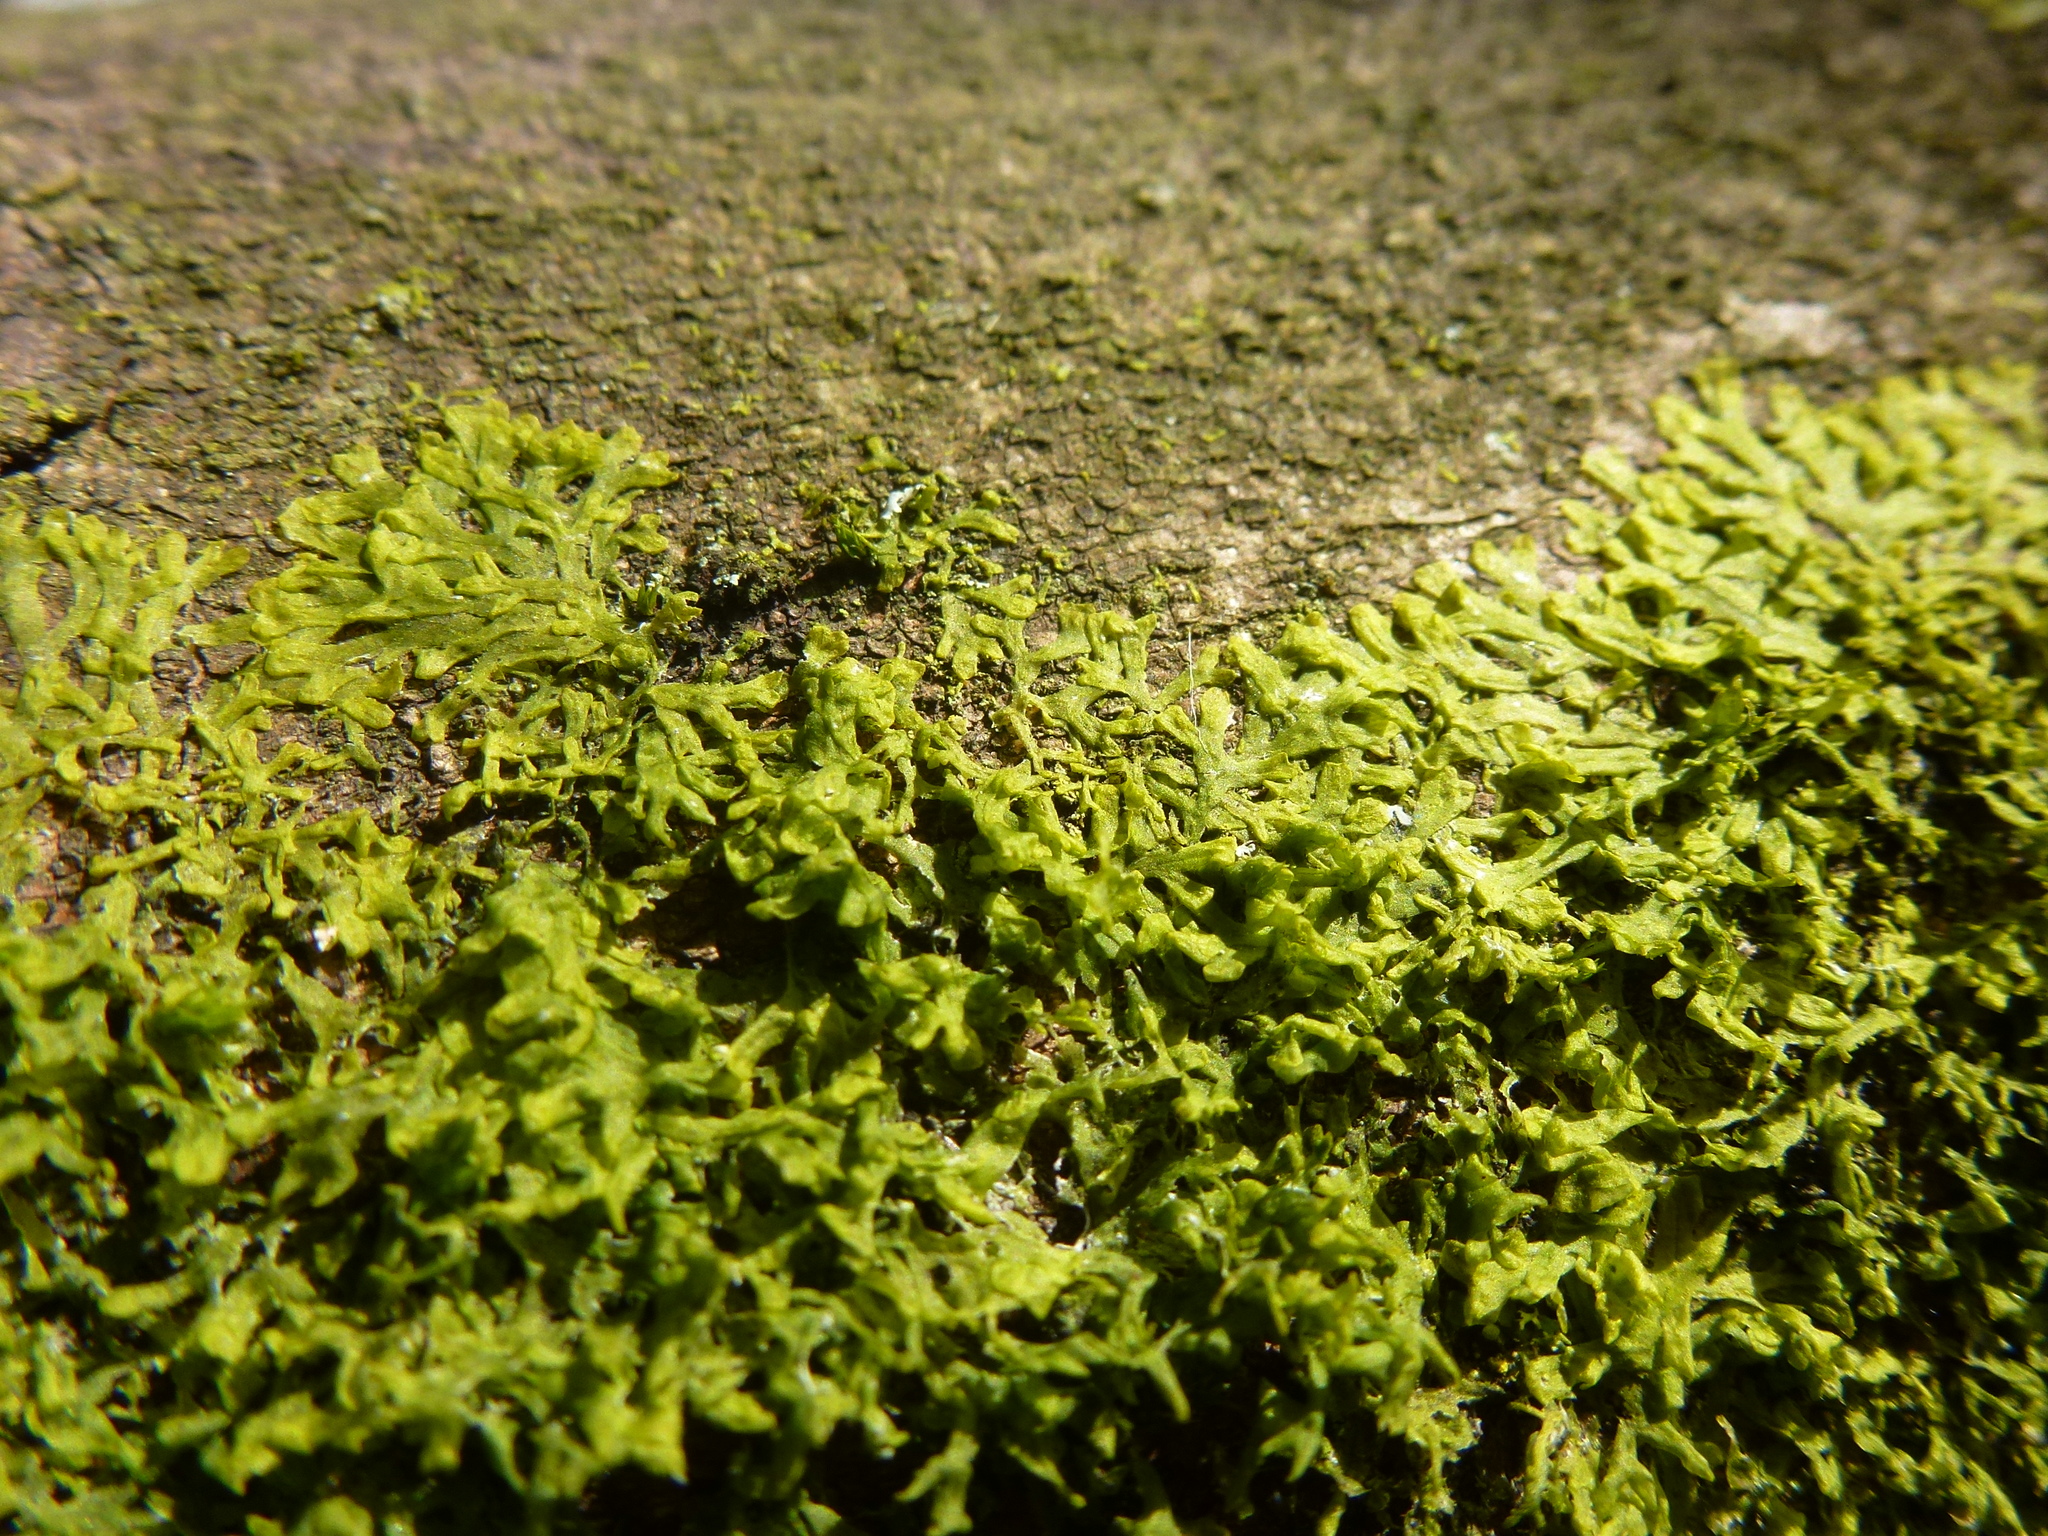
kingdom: Plantae
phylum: Marchantiophyta
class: Jungermanniopsida
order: Metzgeriales
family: Metzgeriaceae
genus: Metzgeria
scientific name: Metzgeria furcata
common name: Forked veilwort
